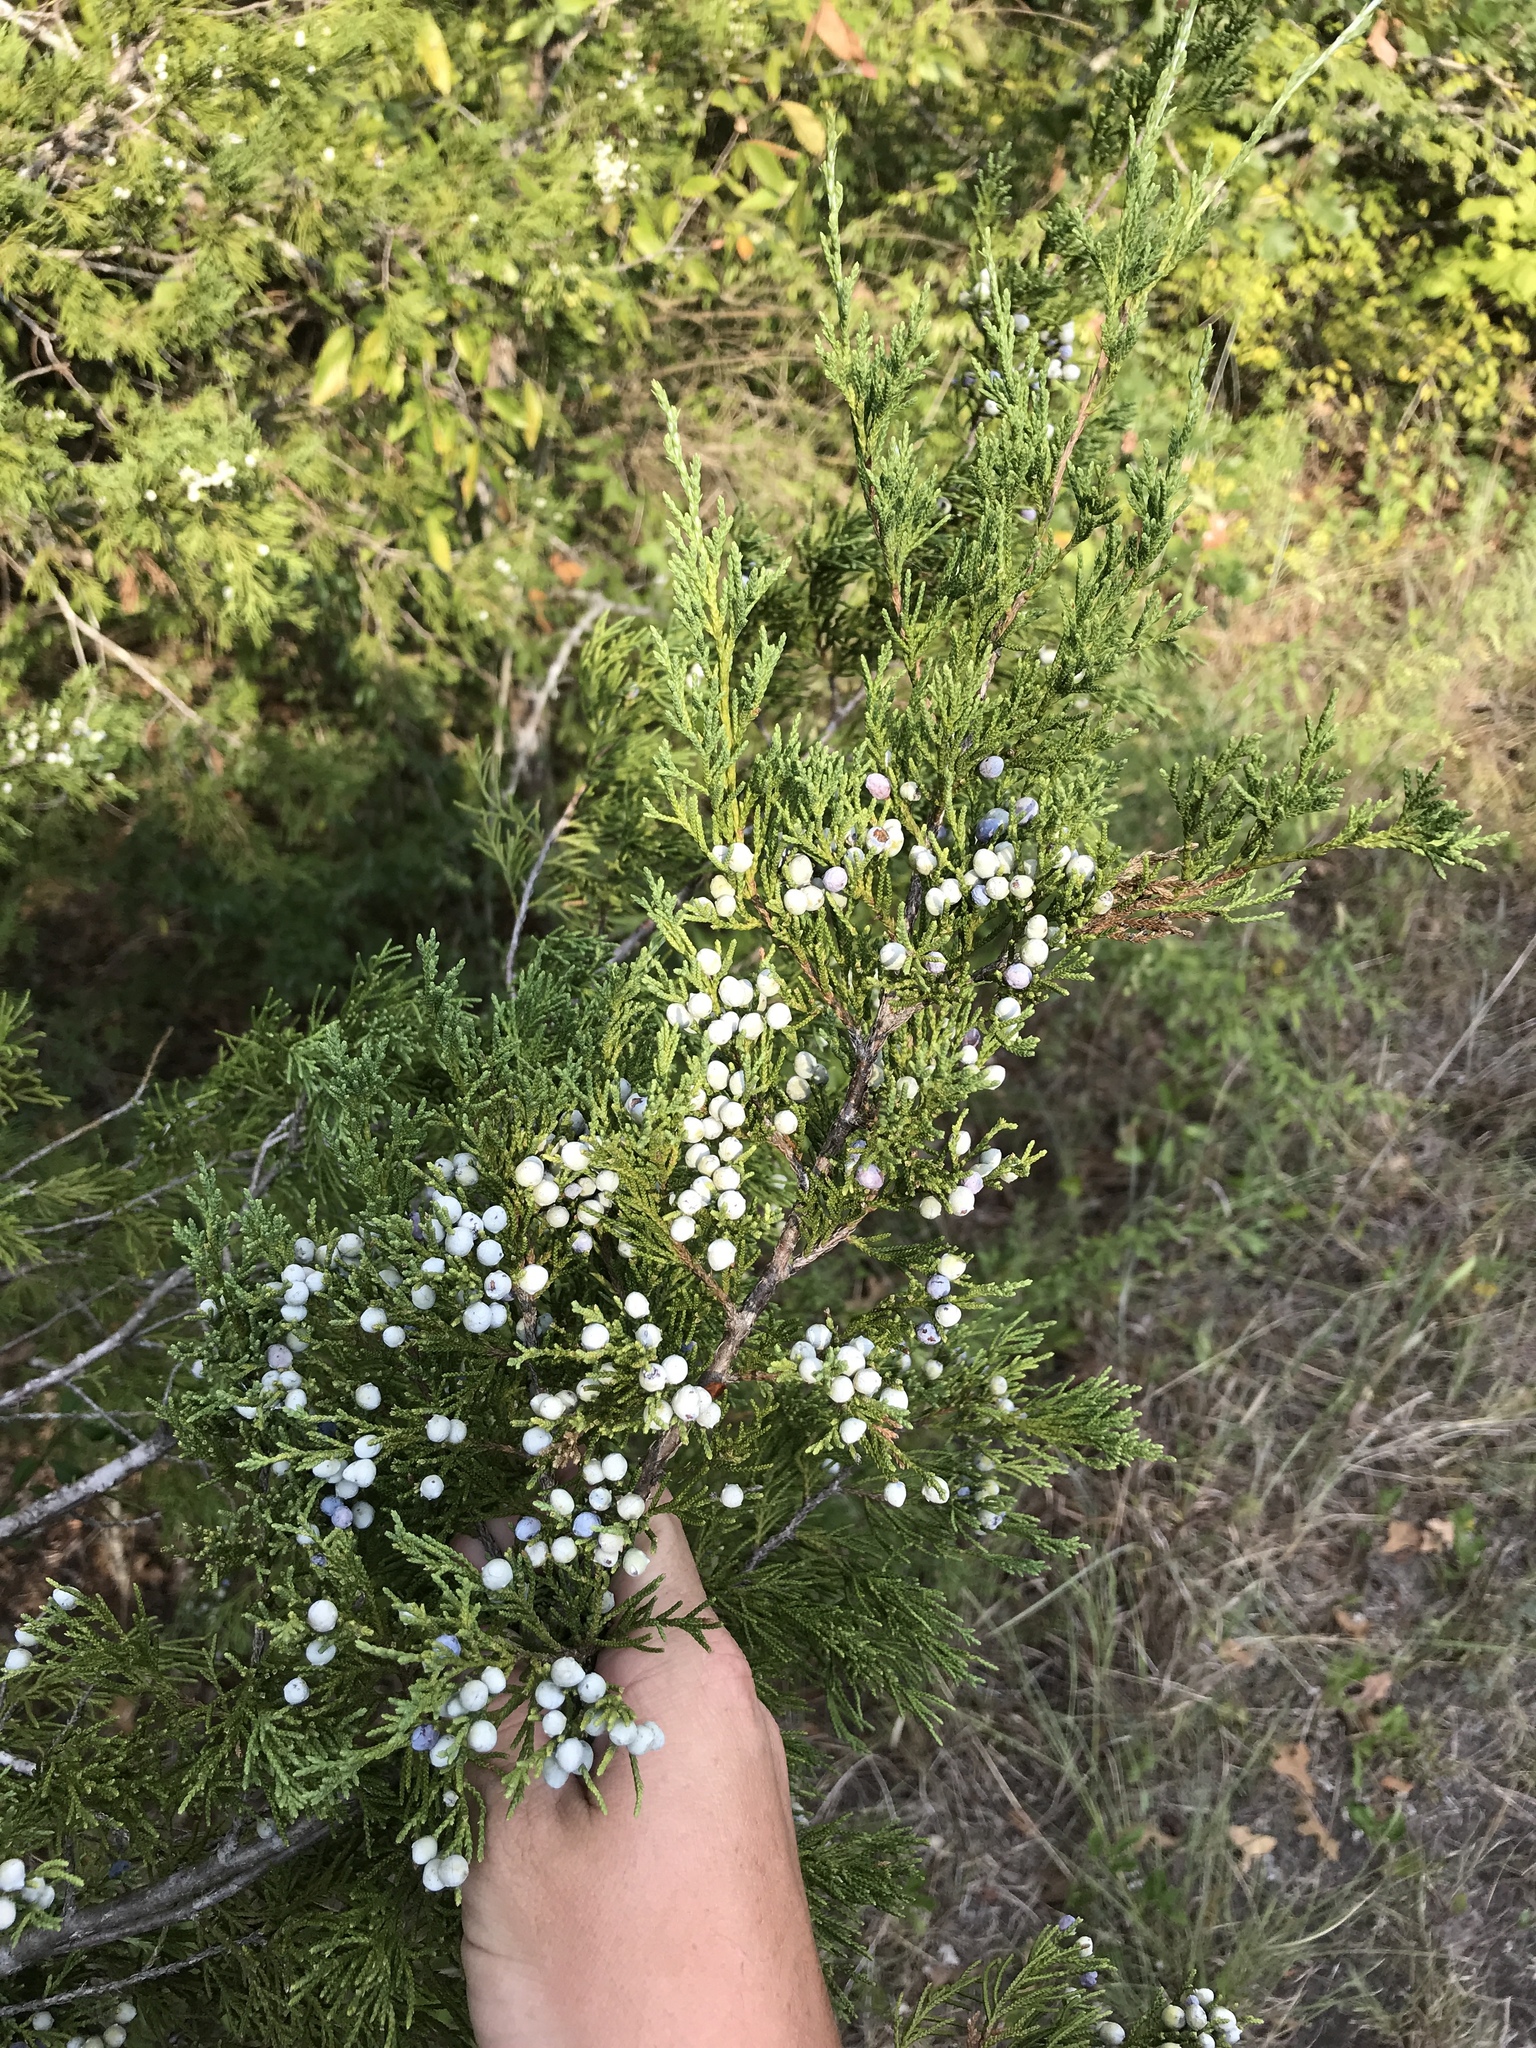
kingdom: Plantae
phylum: Tracheophyta
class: Pinopsida
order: Pinales
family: Cupressaceae
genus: Juniperus
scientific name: Juniperus virginiana
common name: Red juniper
